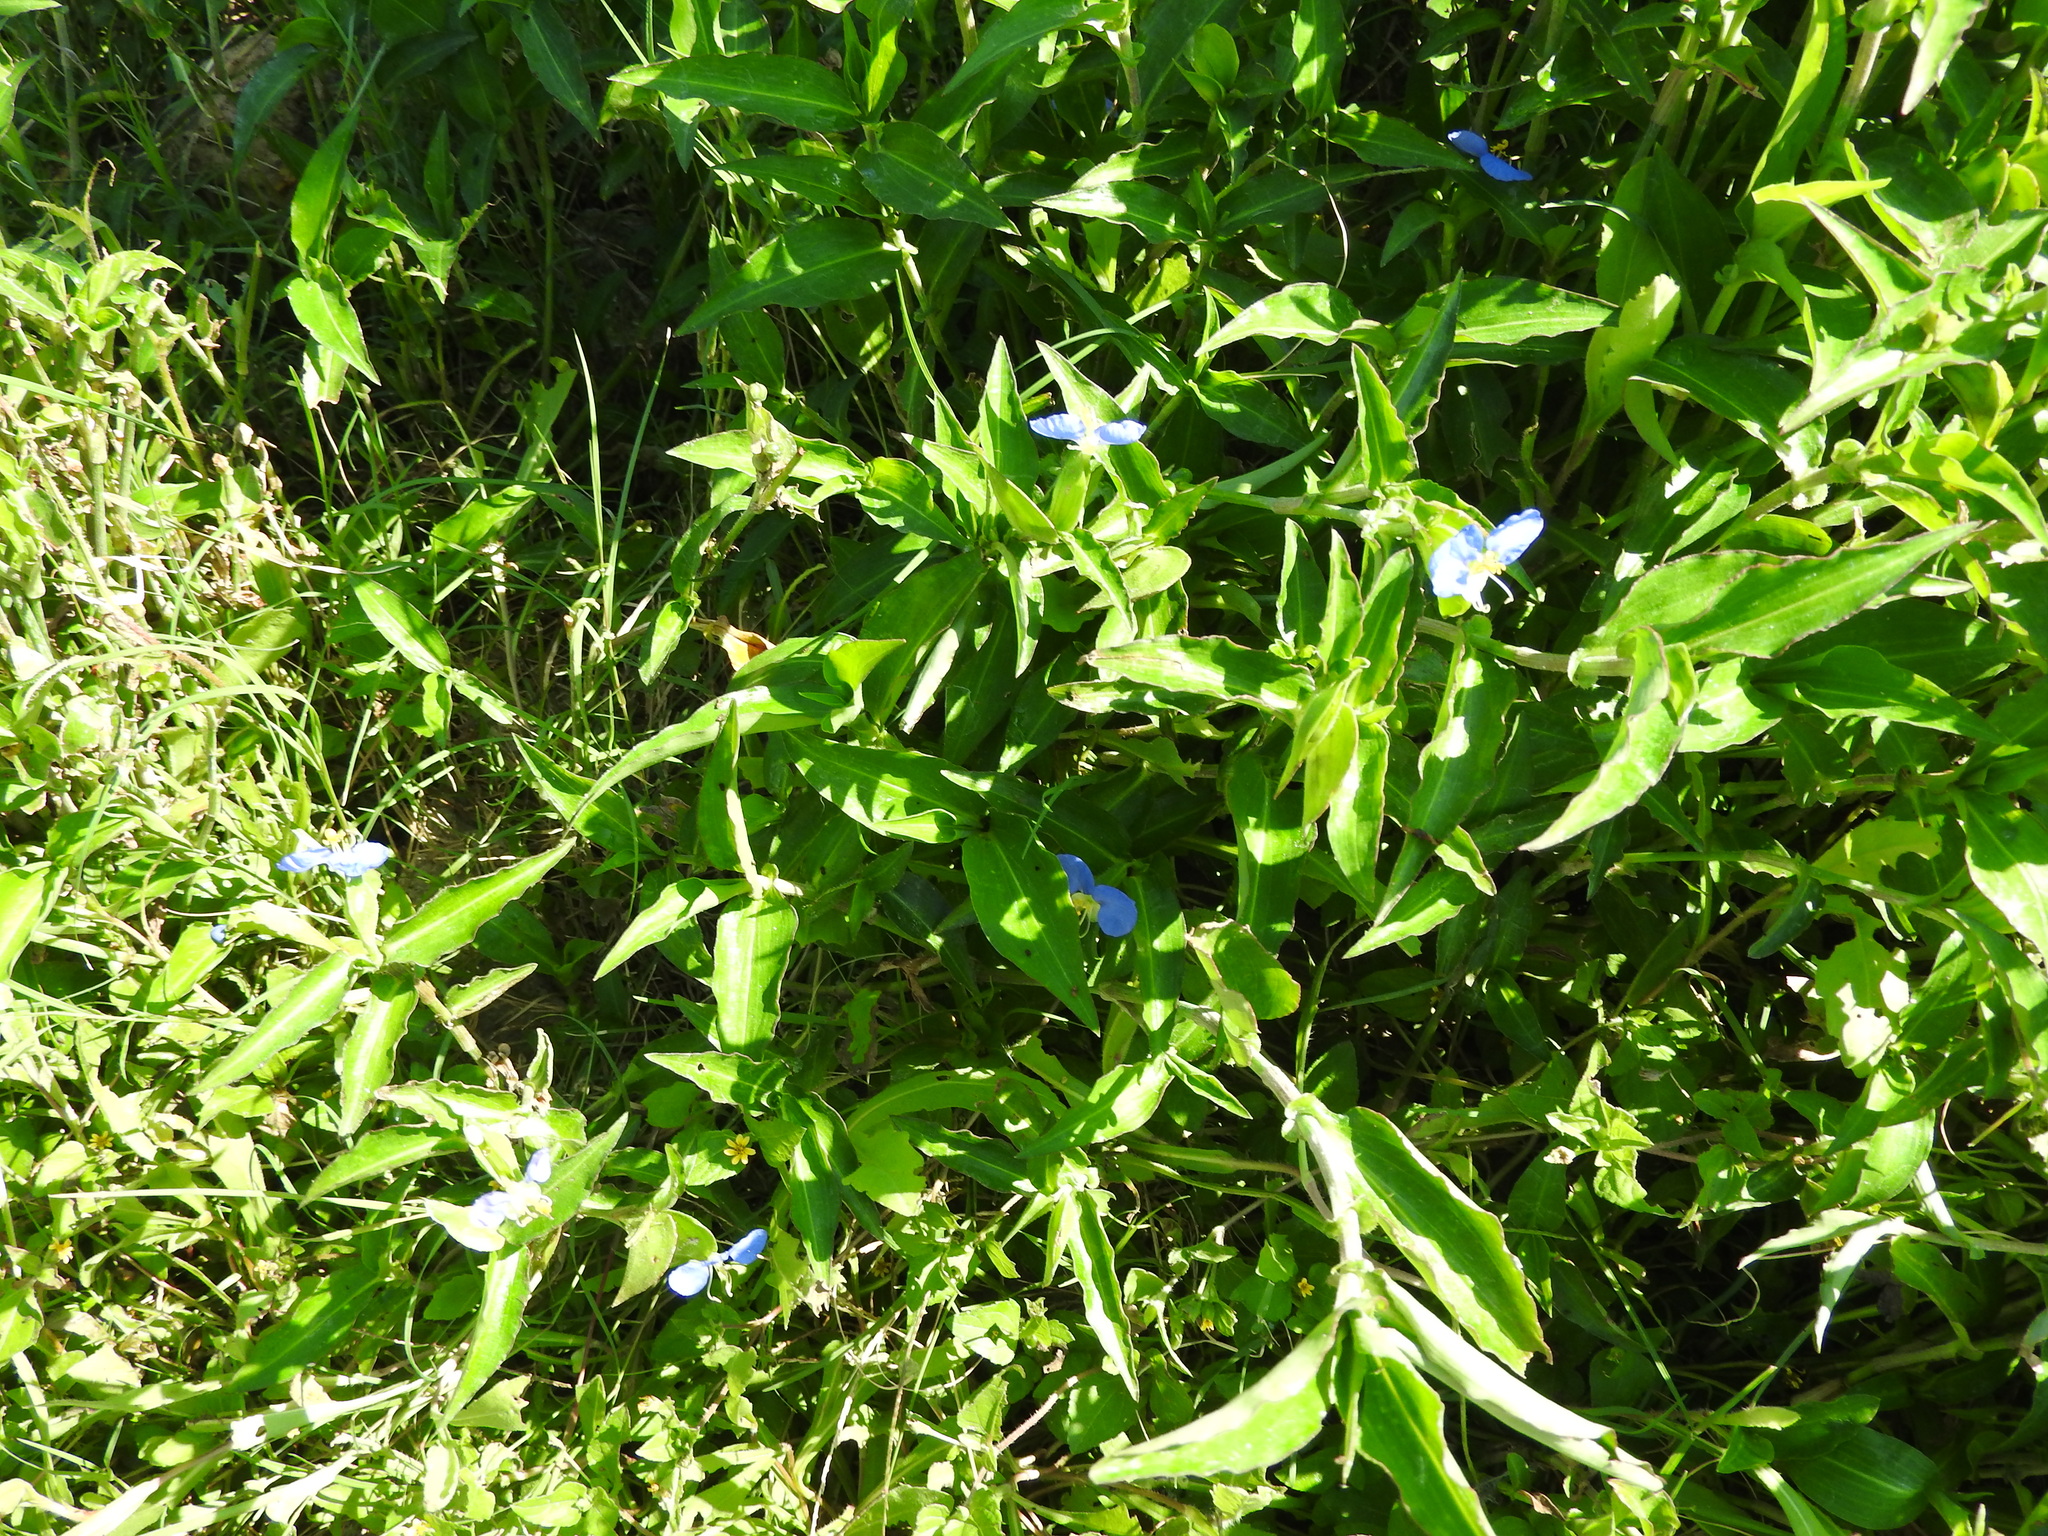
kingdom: Plantae
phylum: Tracheophyta
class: Liliopsida
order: Commelinales
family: Commelinaceae
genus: Commelina
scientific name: Commelina erecta
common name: Blousel blommetjie
